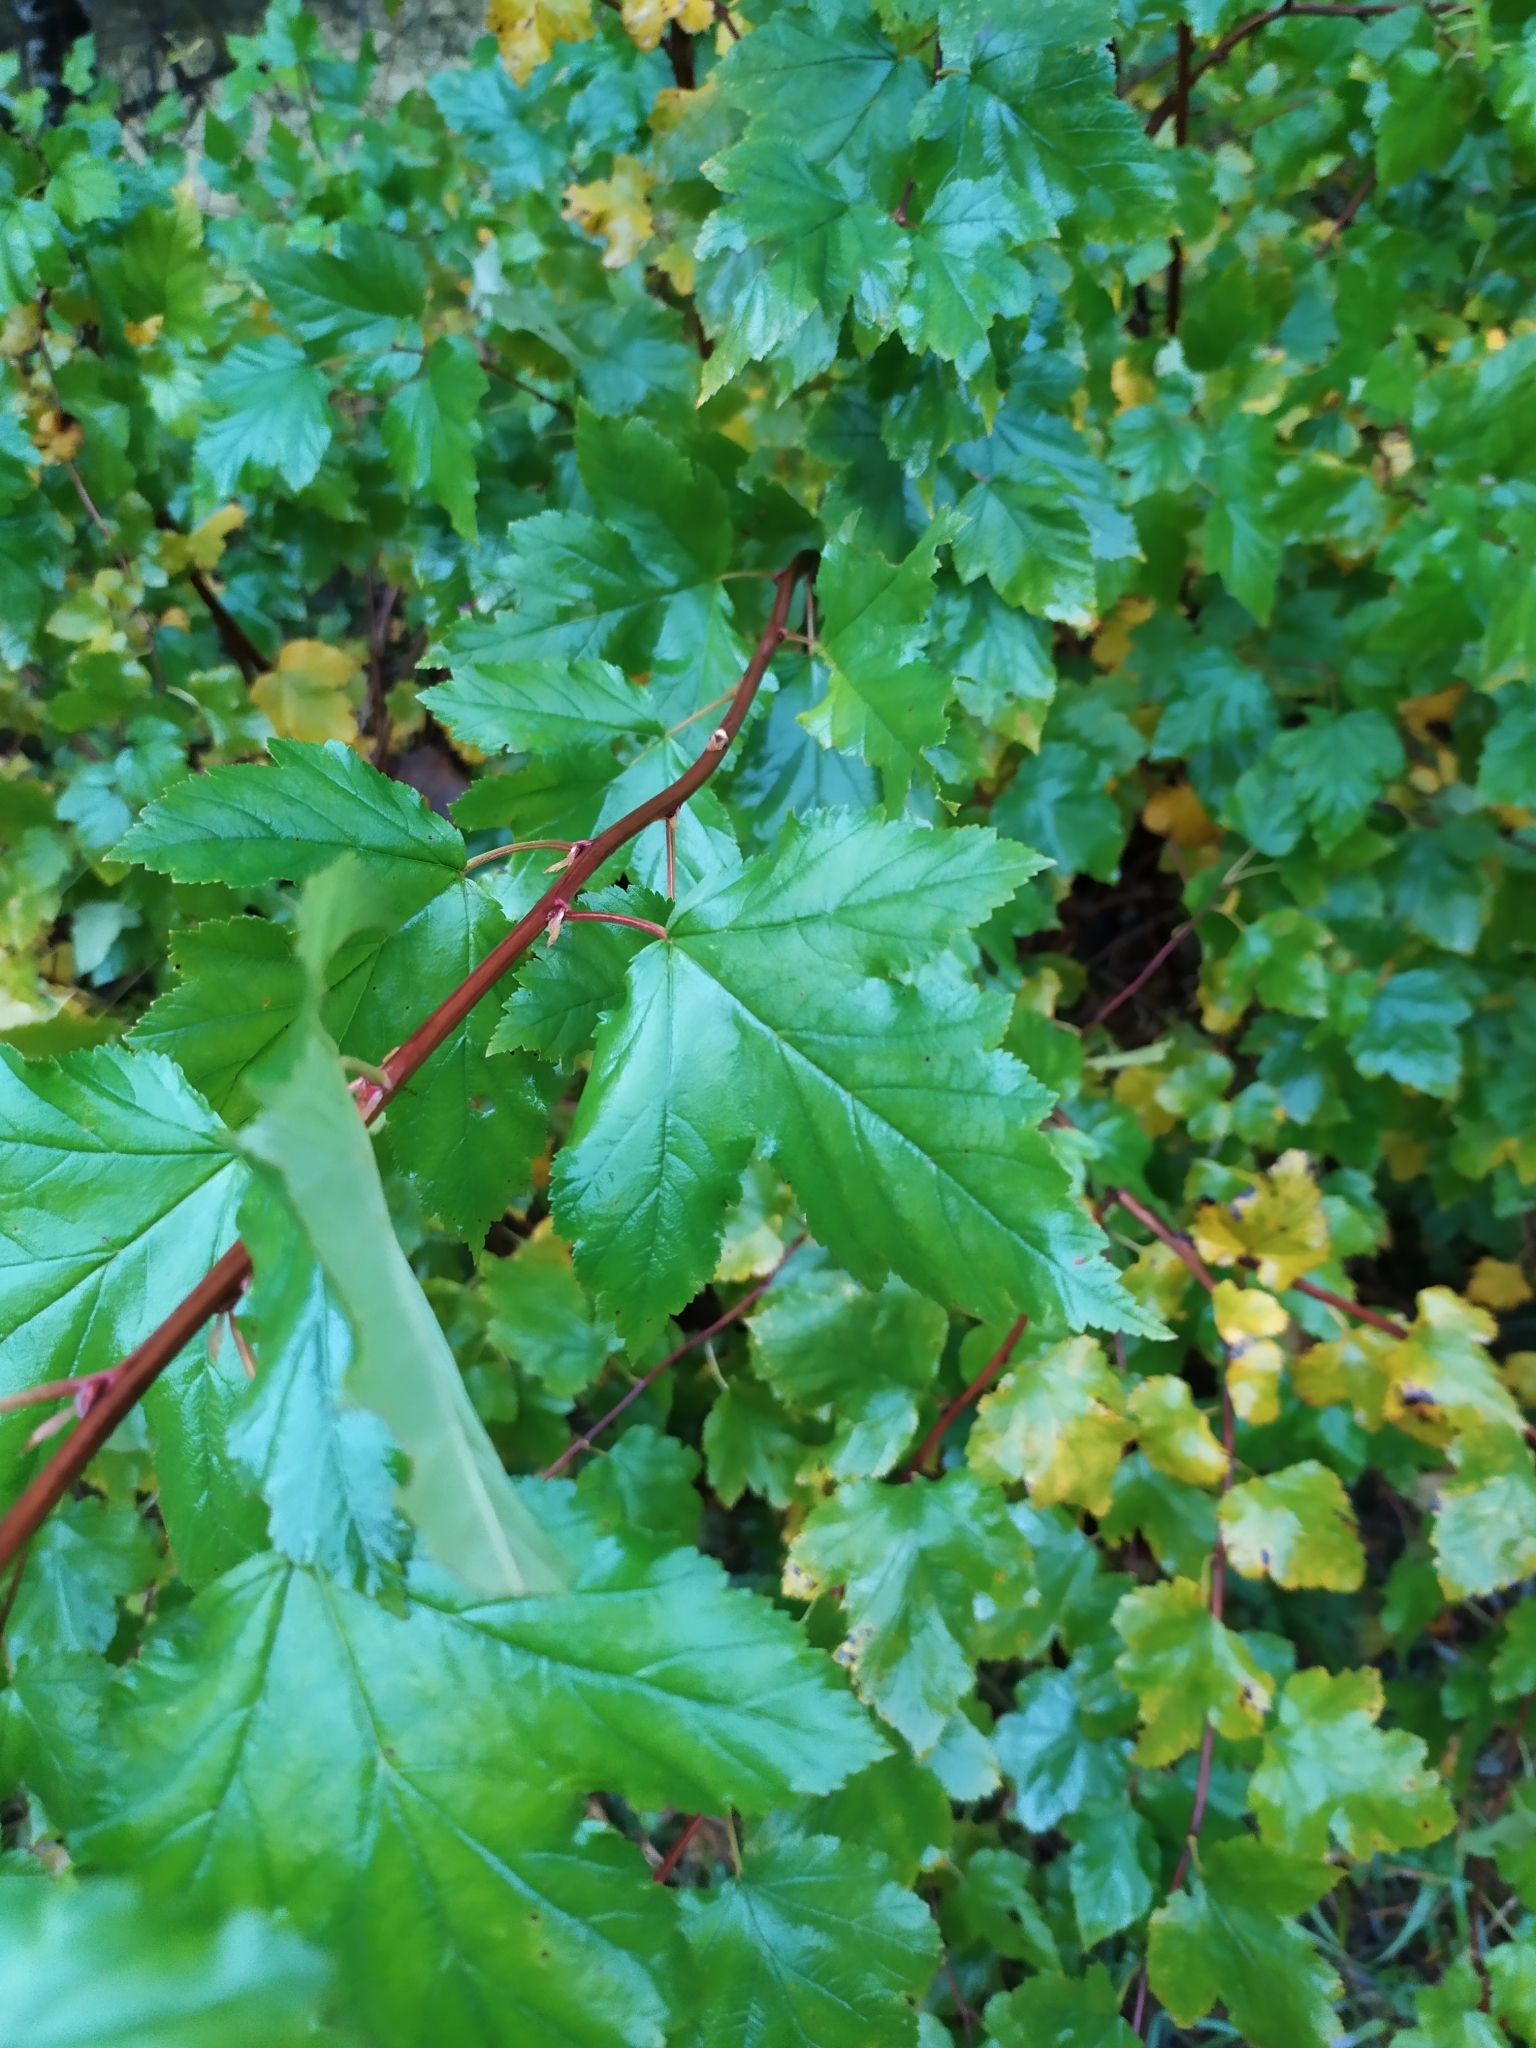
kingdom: Plantae
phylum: Tracheophyta
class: Magnoliopsida
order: Rosales
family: Rosaceae
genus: Physocarpus
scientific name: Physocarpus opulifolius
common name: Ninebark
